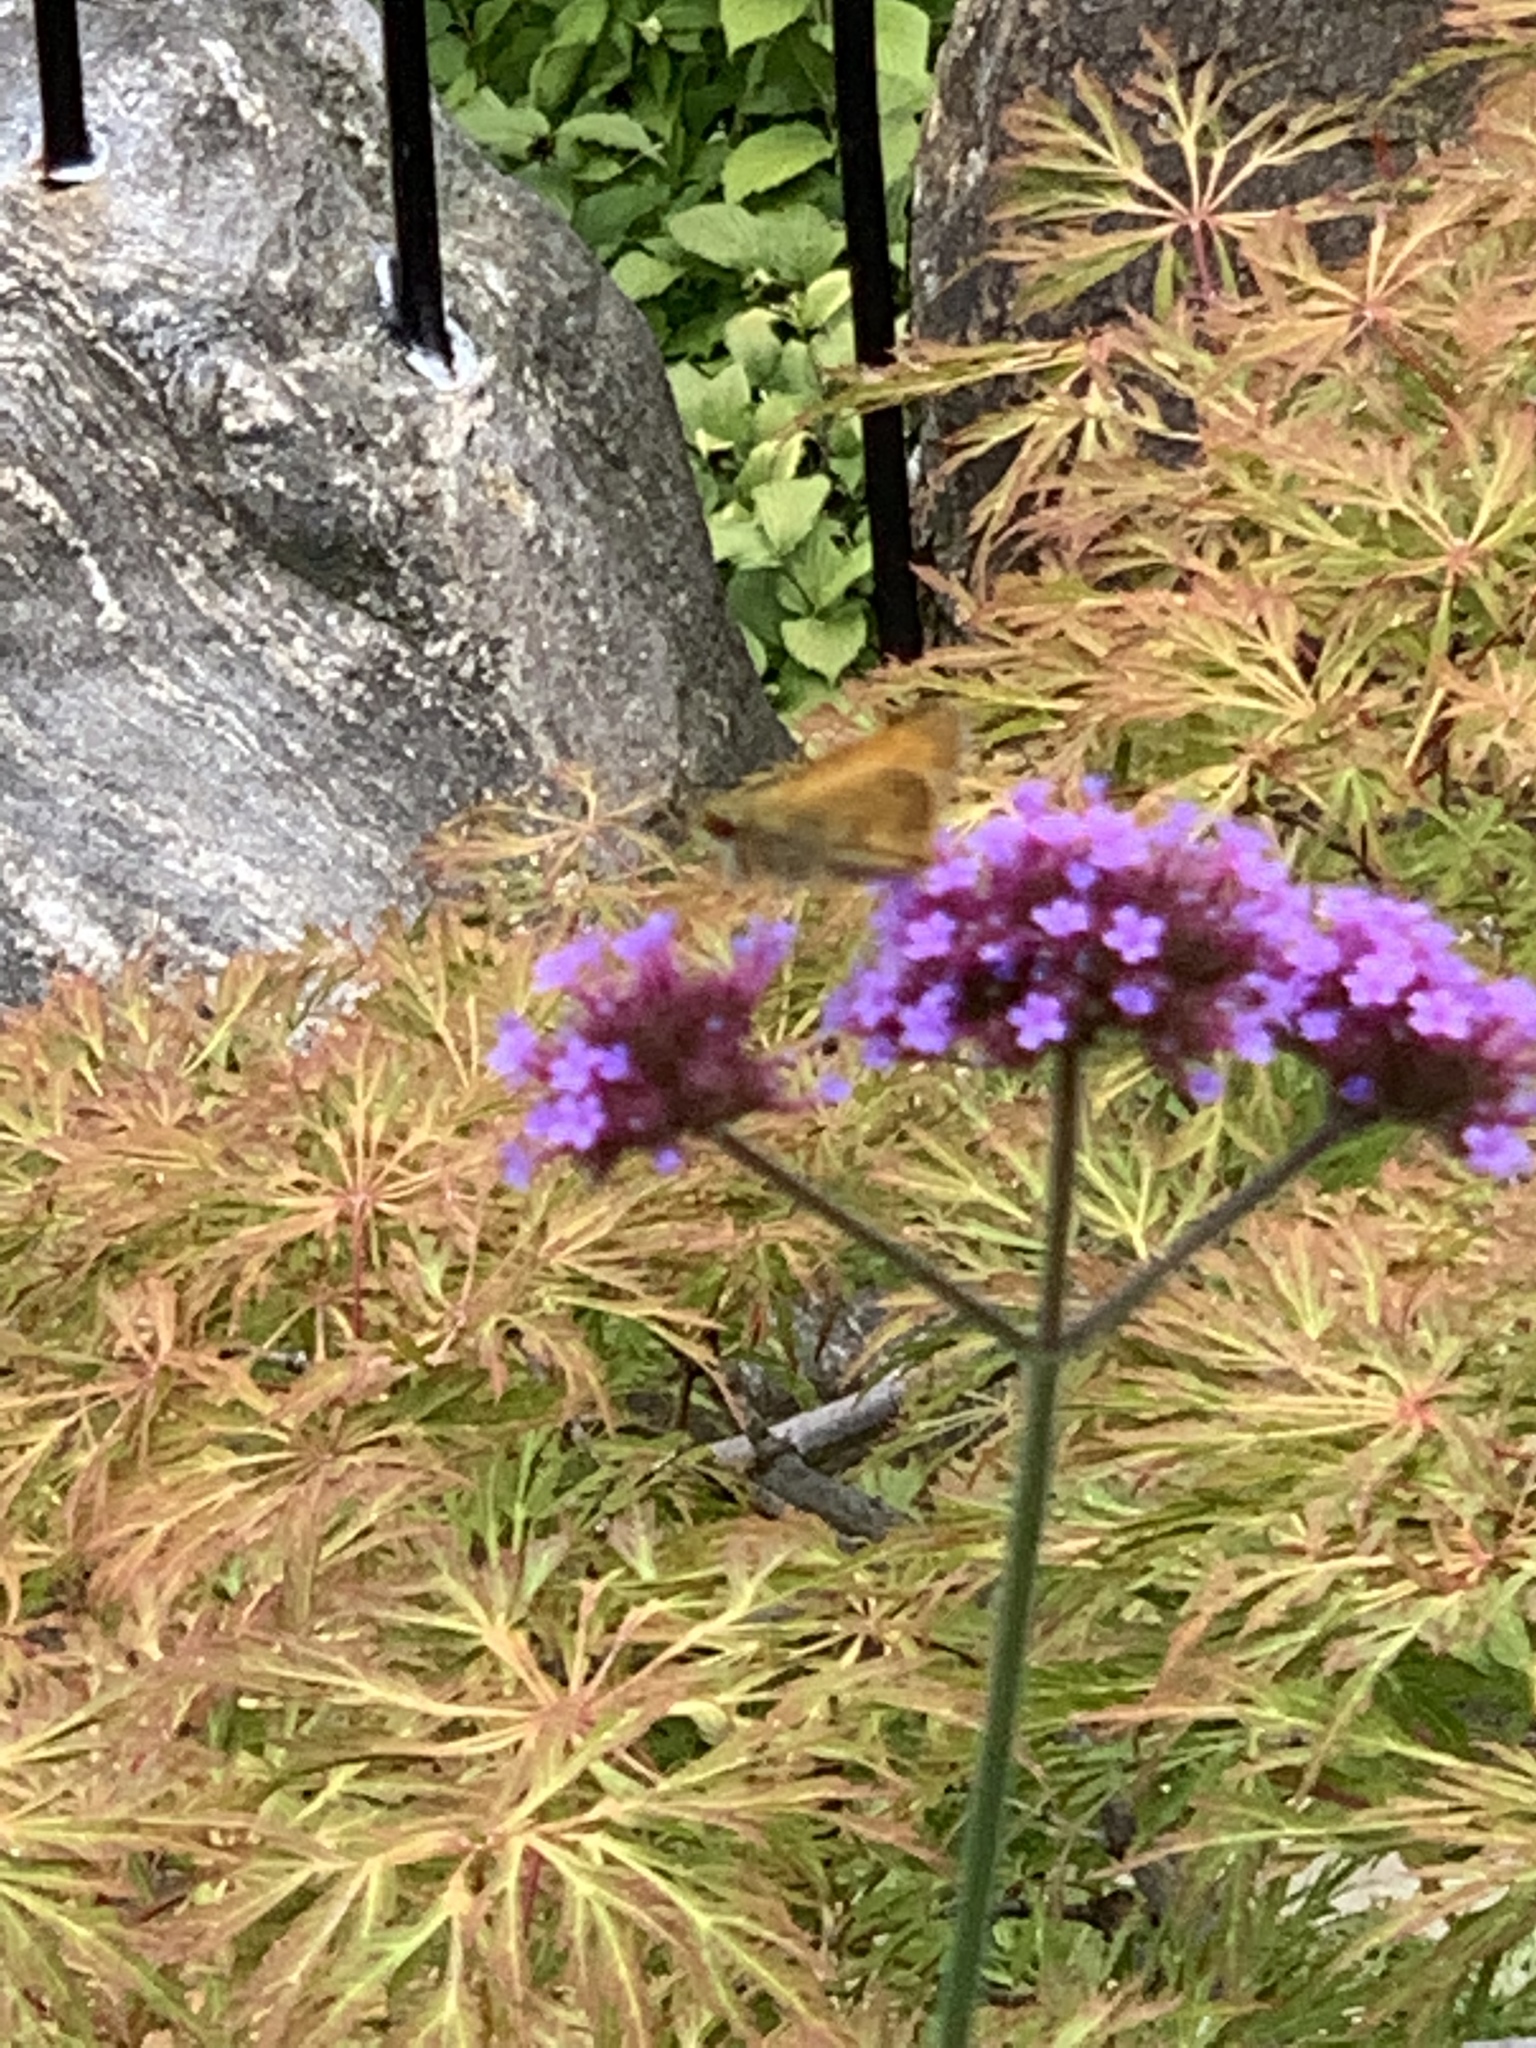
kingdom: Plantae
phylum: Tracheophyta
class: Magnoliopsida
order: Lamiales
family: Verbenaceae
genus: Verbena
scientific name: Verbena bonariensis
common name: Purpletop vervain
